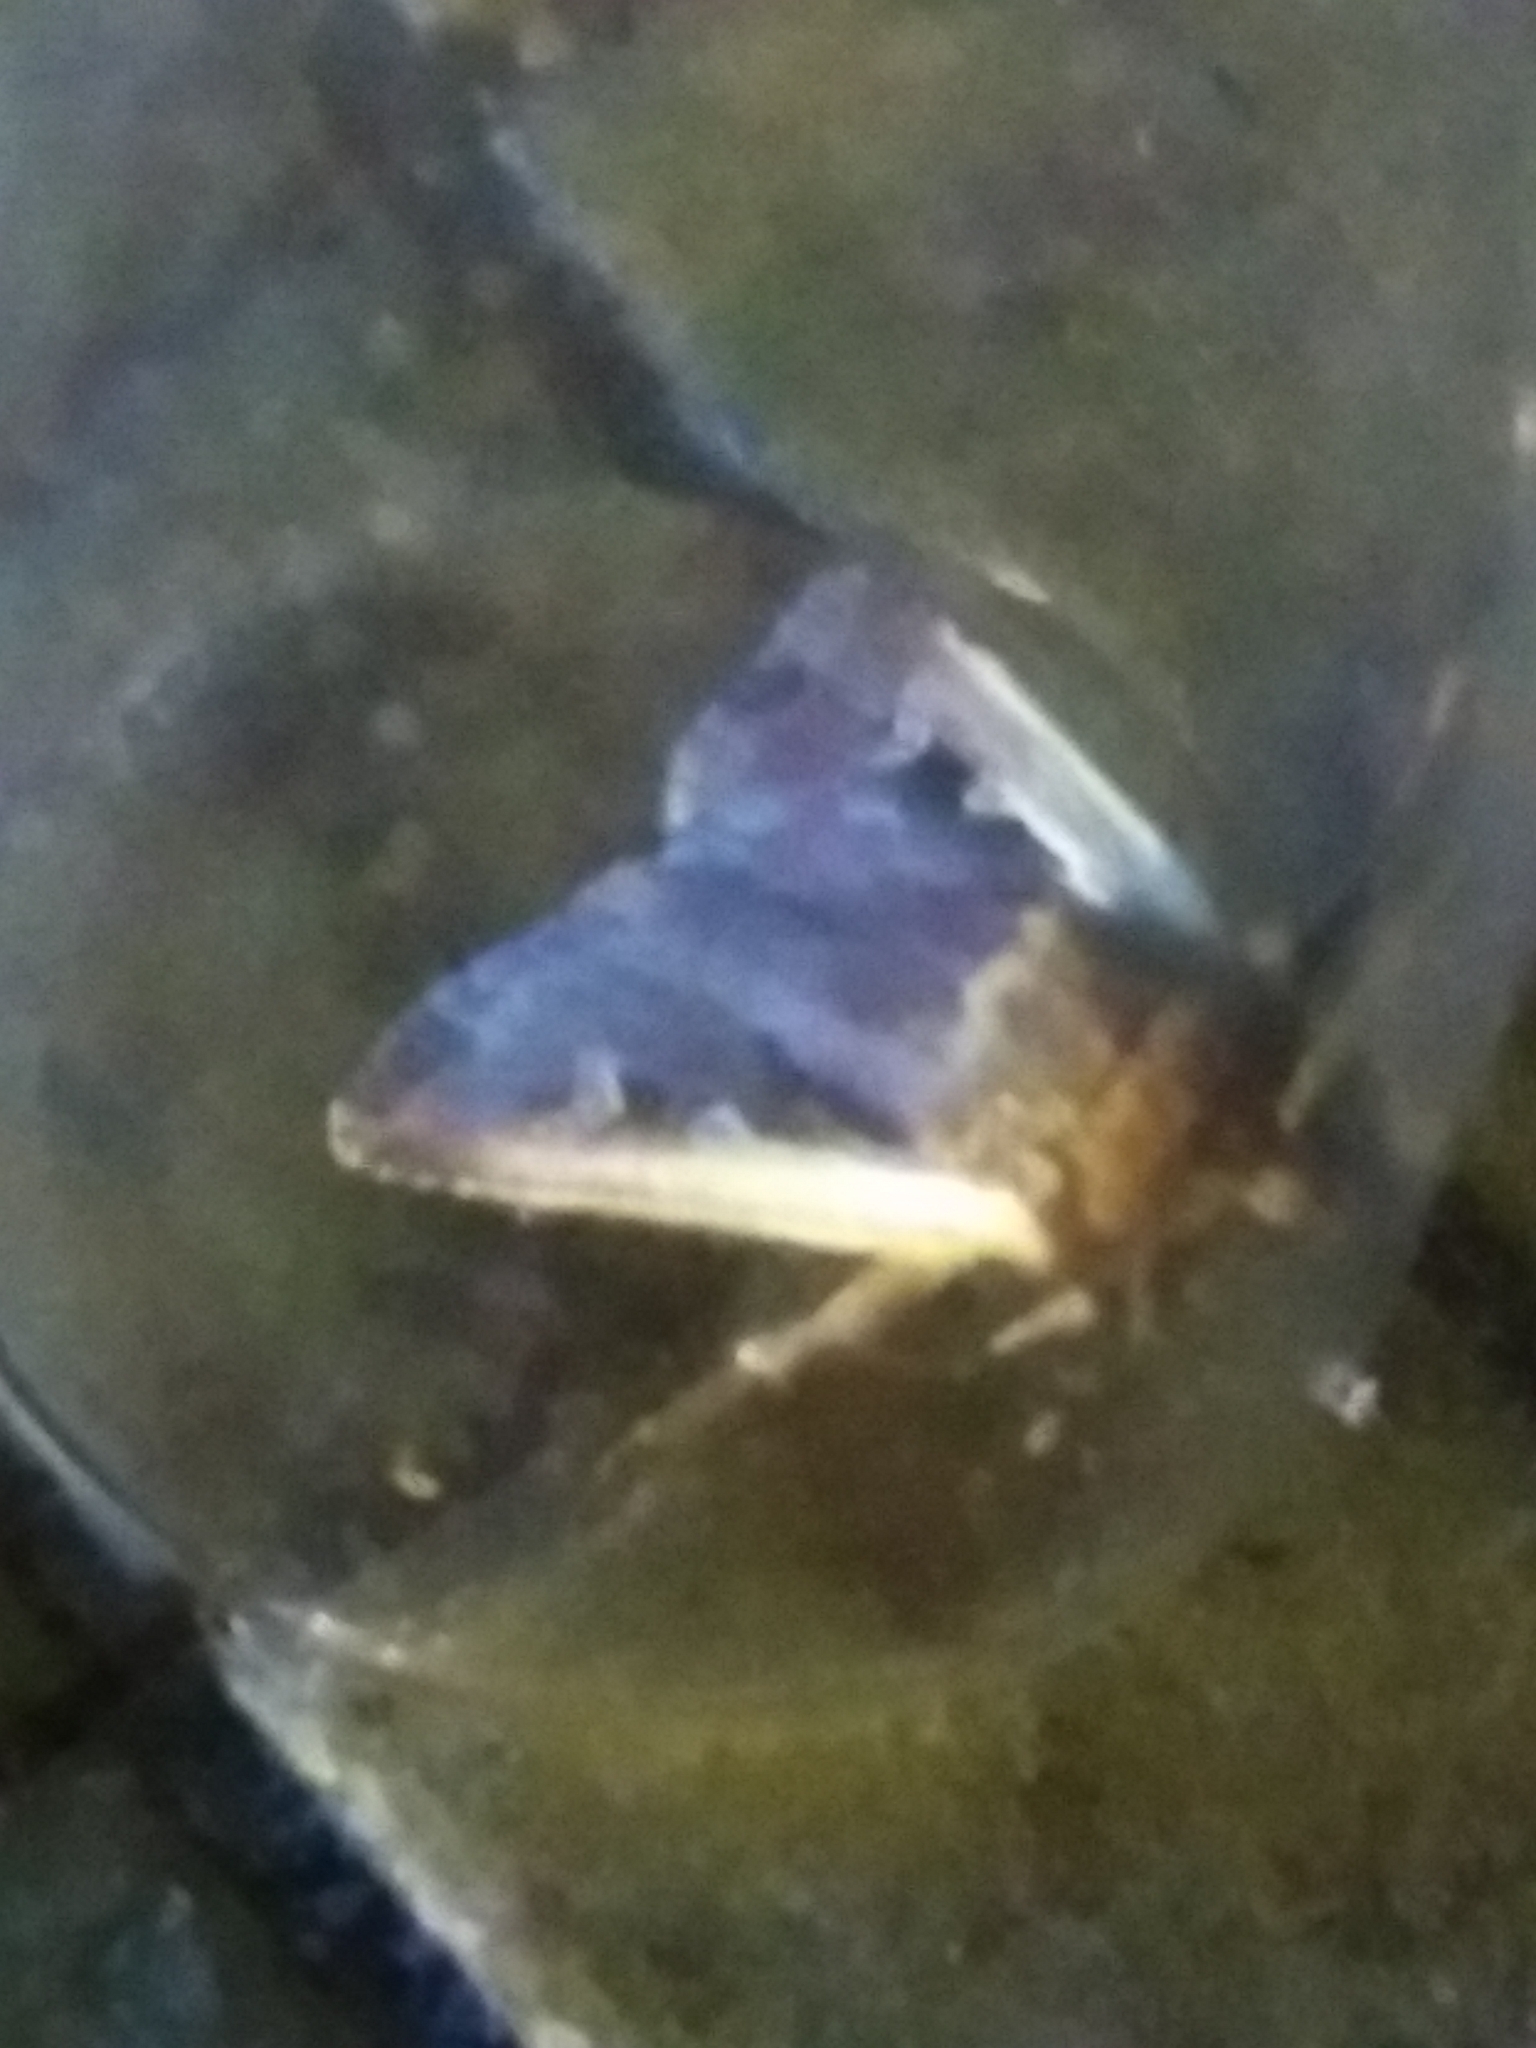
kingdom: Animalia
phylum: Arthropoda
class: Insecta
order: Lepidoptera
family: Noctuidae
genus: Ochropleura
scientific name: Ochropleura plecta
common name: Flame shoulder
